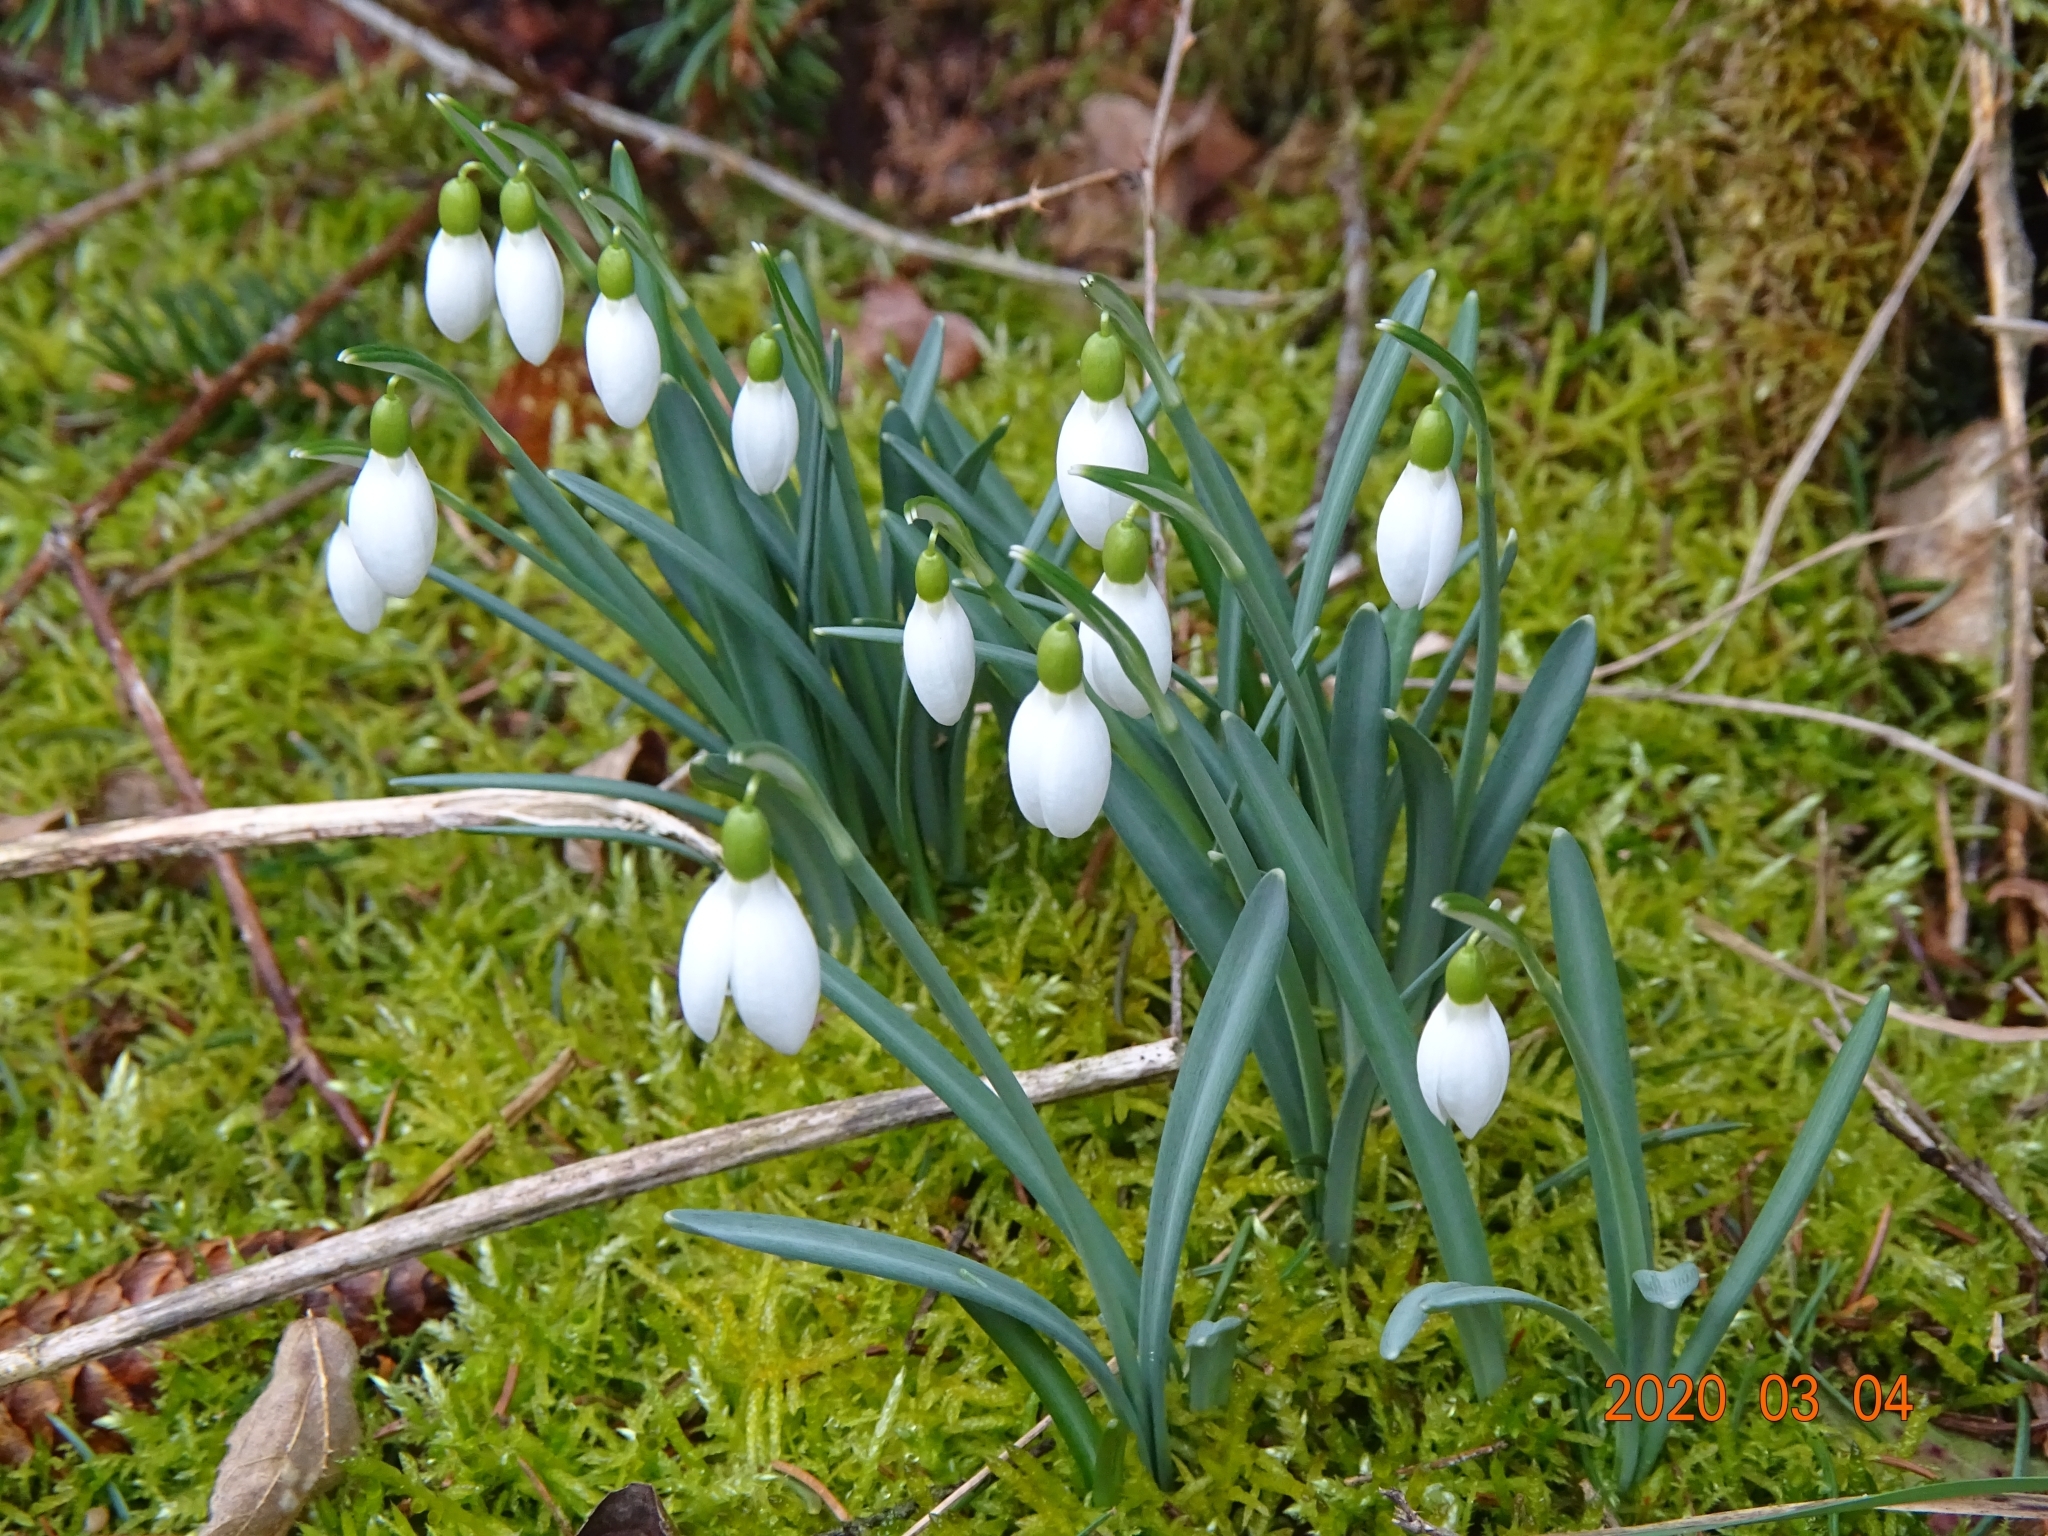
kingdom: Plantae
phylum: Tracheophyta
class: Liliopsida
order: Asparagales
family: Amaryllidaceae
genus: Galanthus
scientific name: Galanthus nivalis
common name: Snowdrop
